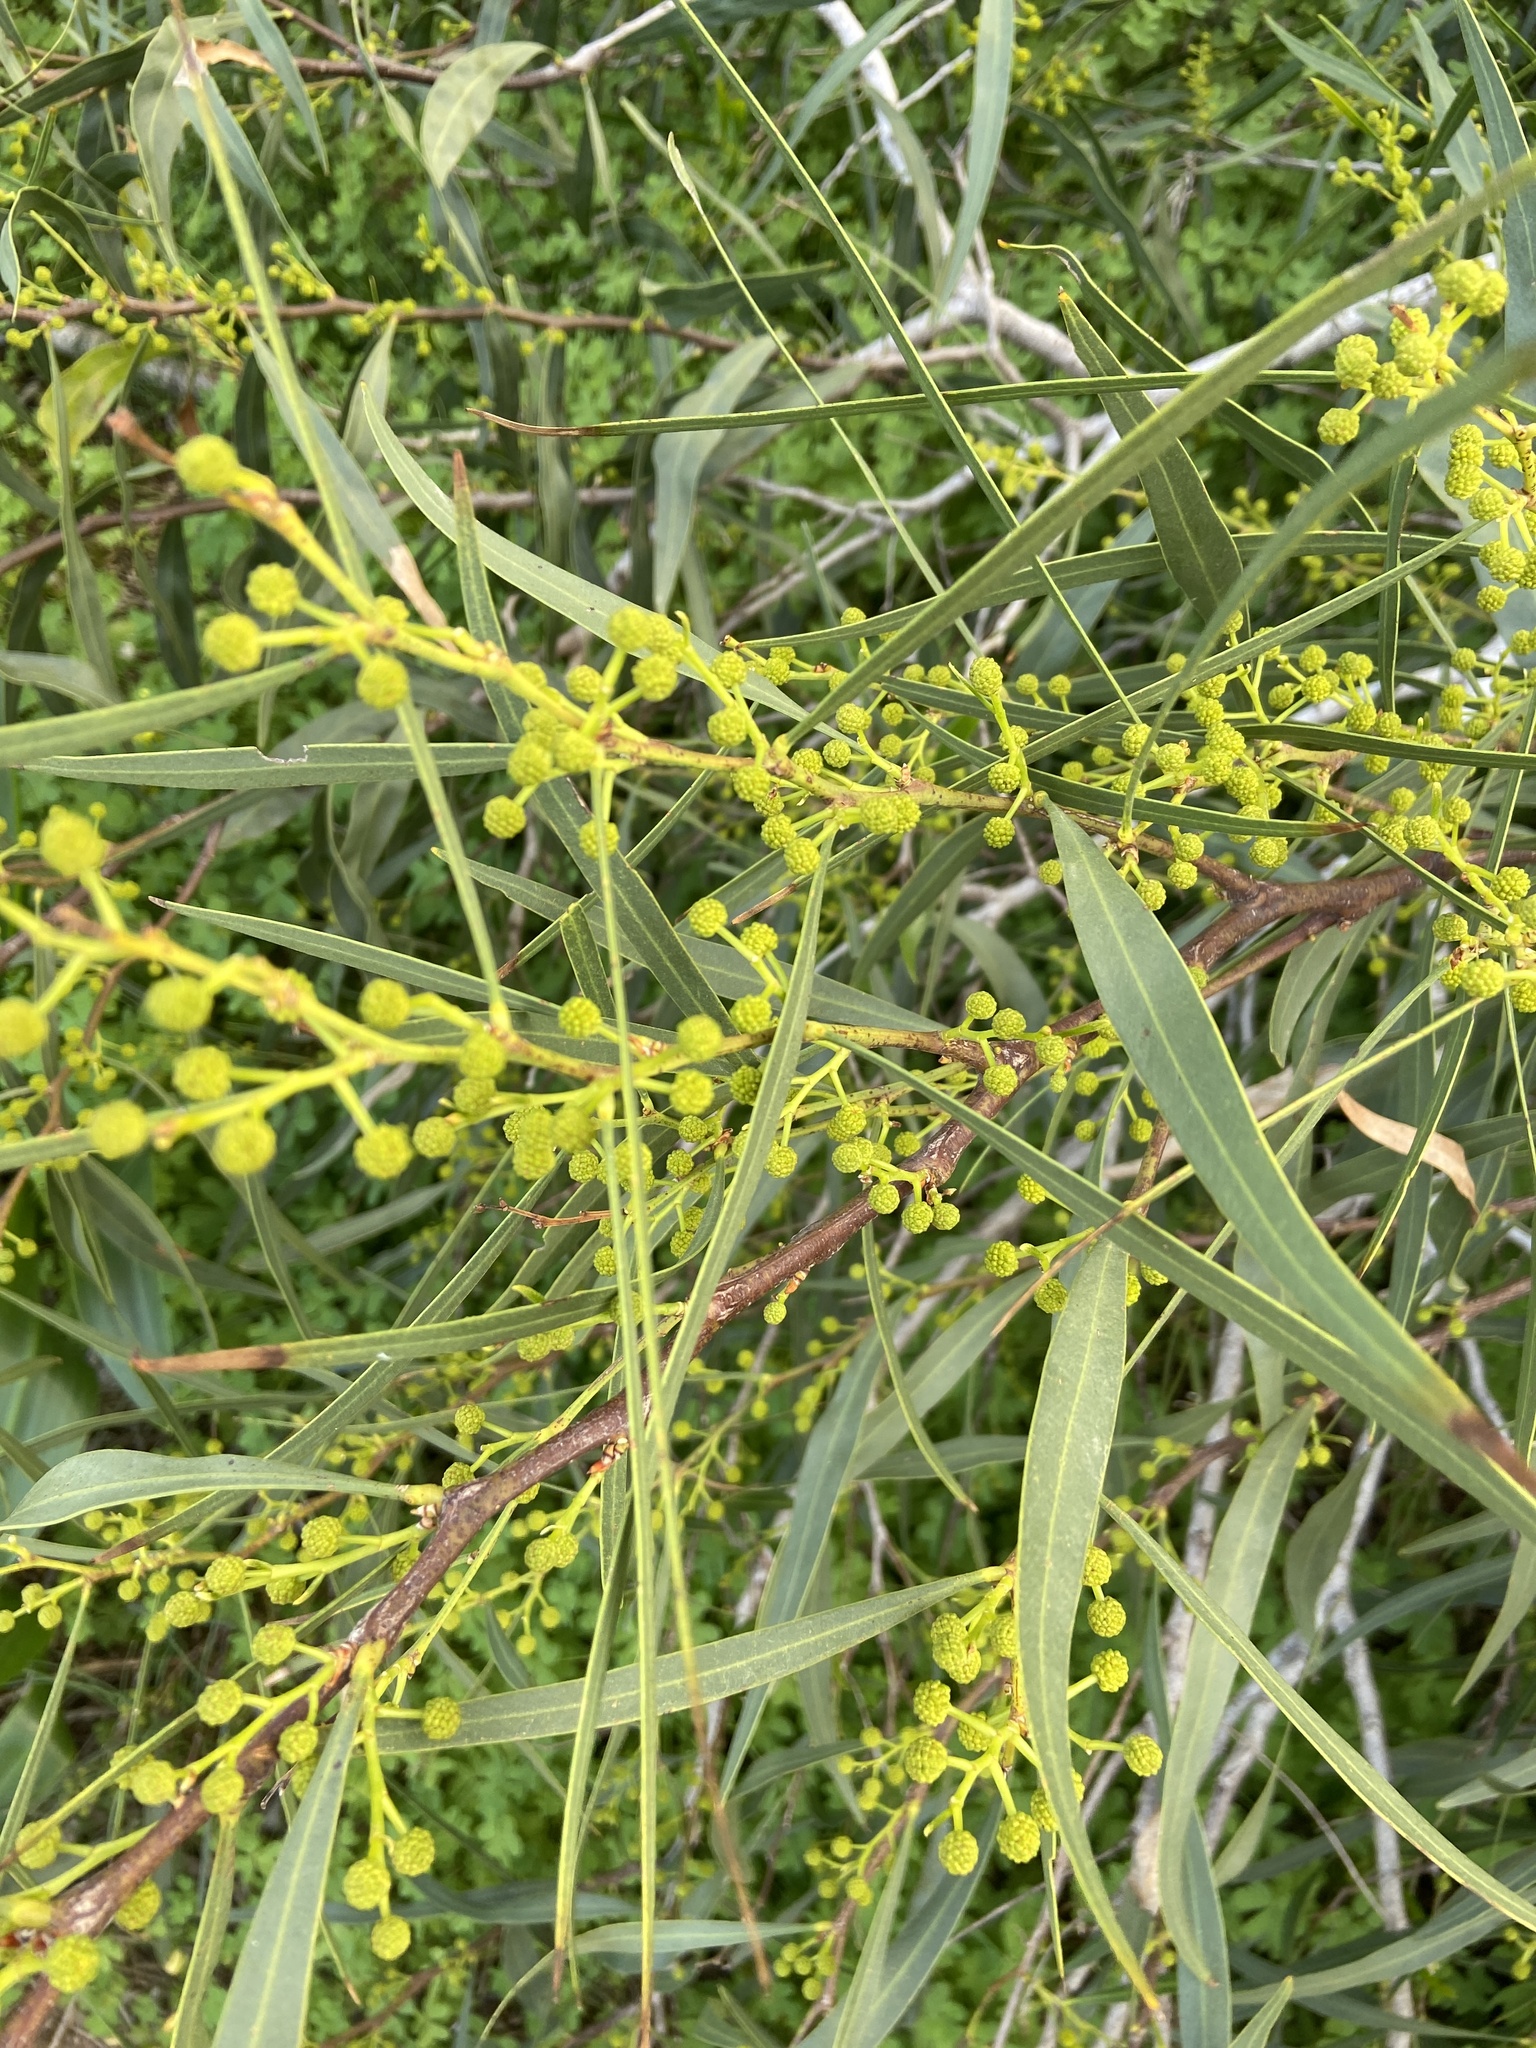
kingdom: Plantae
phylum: Tracheophyta
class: Magnoliopsida
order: Fabales
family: Fabaceae
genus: Acacia
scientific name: Acacia saligna
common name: Orange wattle
